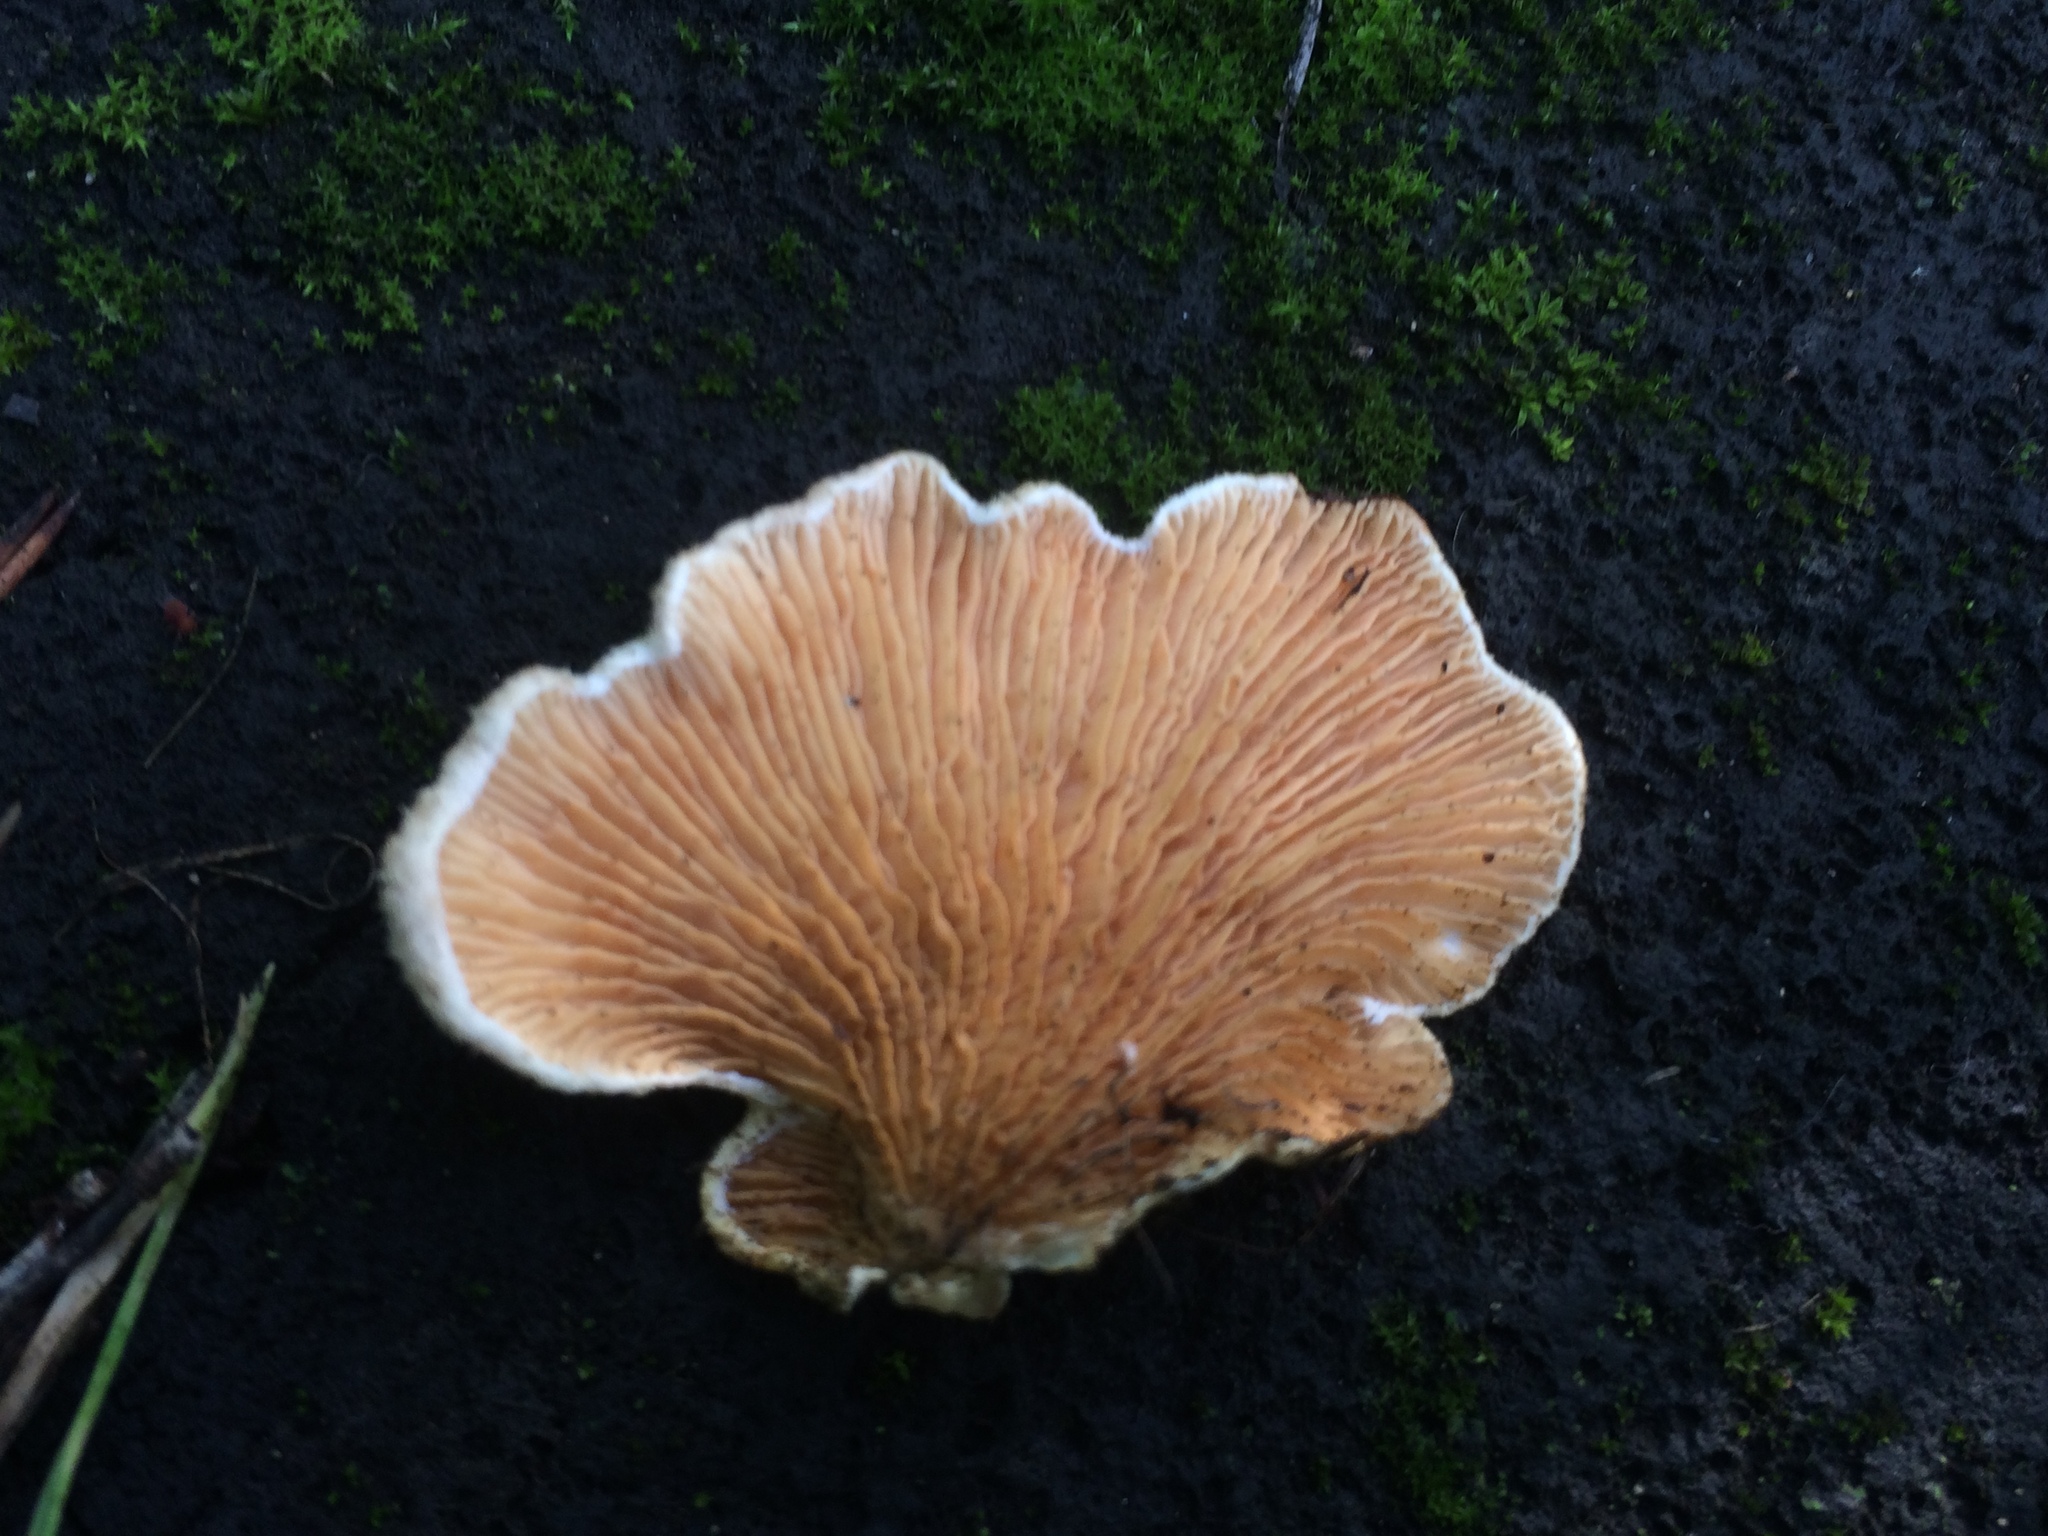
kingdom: Fungi
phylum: Basidiomycota
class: Agaricomycetes
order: Boletales
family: Tapinellaceae
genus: Tapinella
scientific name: Tapinella panuoides
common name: Oyster rollrim
